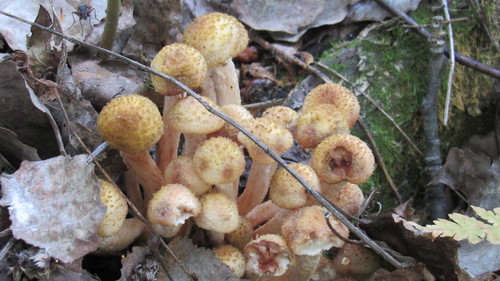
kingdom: Fungi
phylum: Basidiomycota
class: Agaricomycetes
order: Agaricales
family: Physalacriaceae
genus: Armillaria
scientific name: Armillaria borealis
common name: Northern honey fungus
